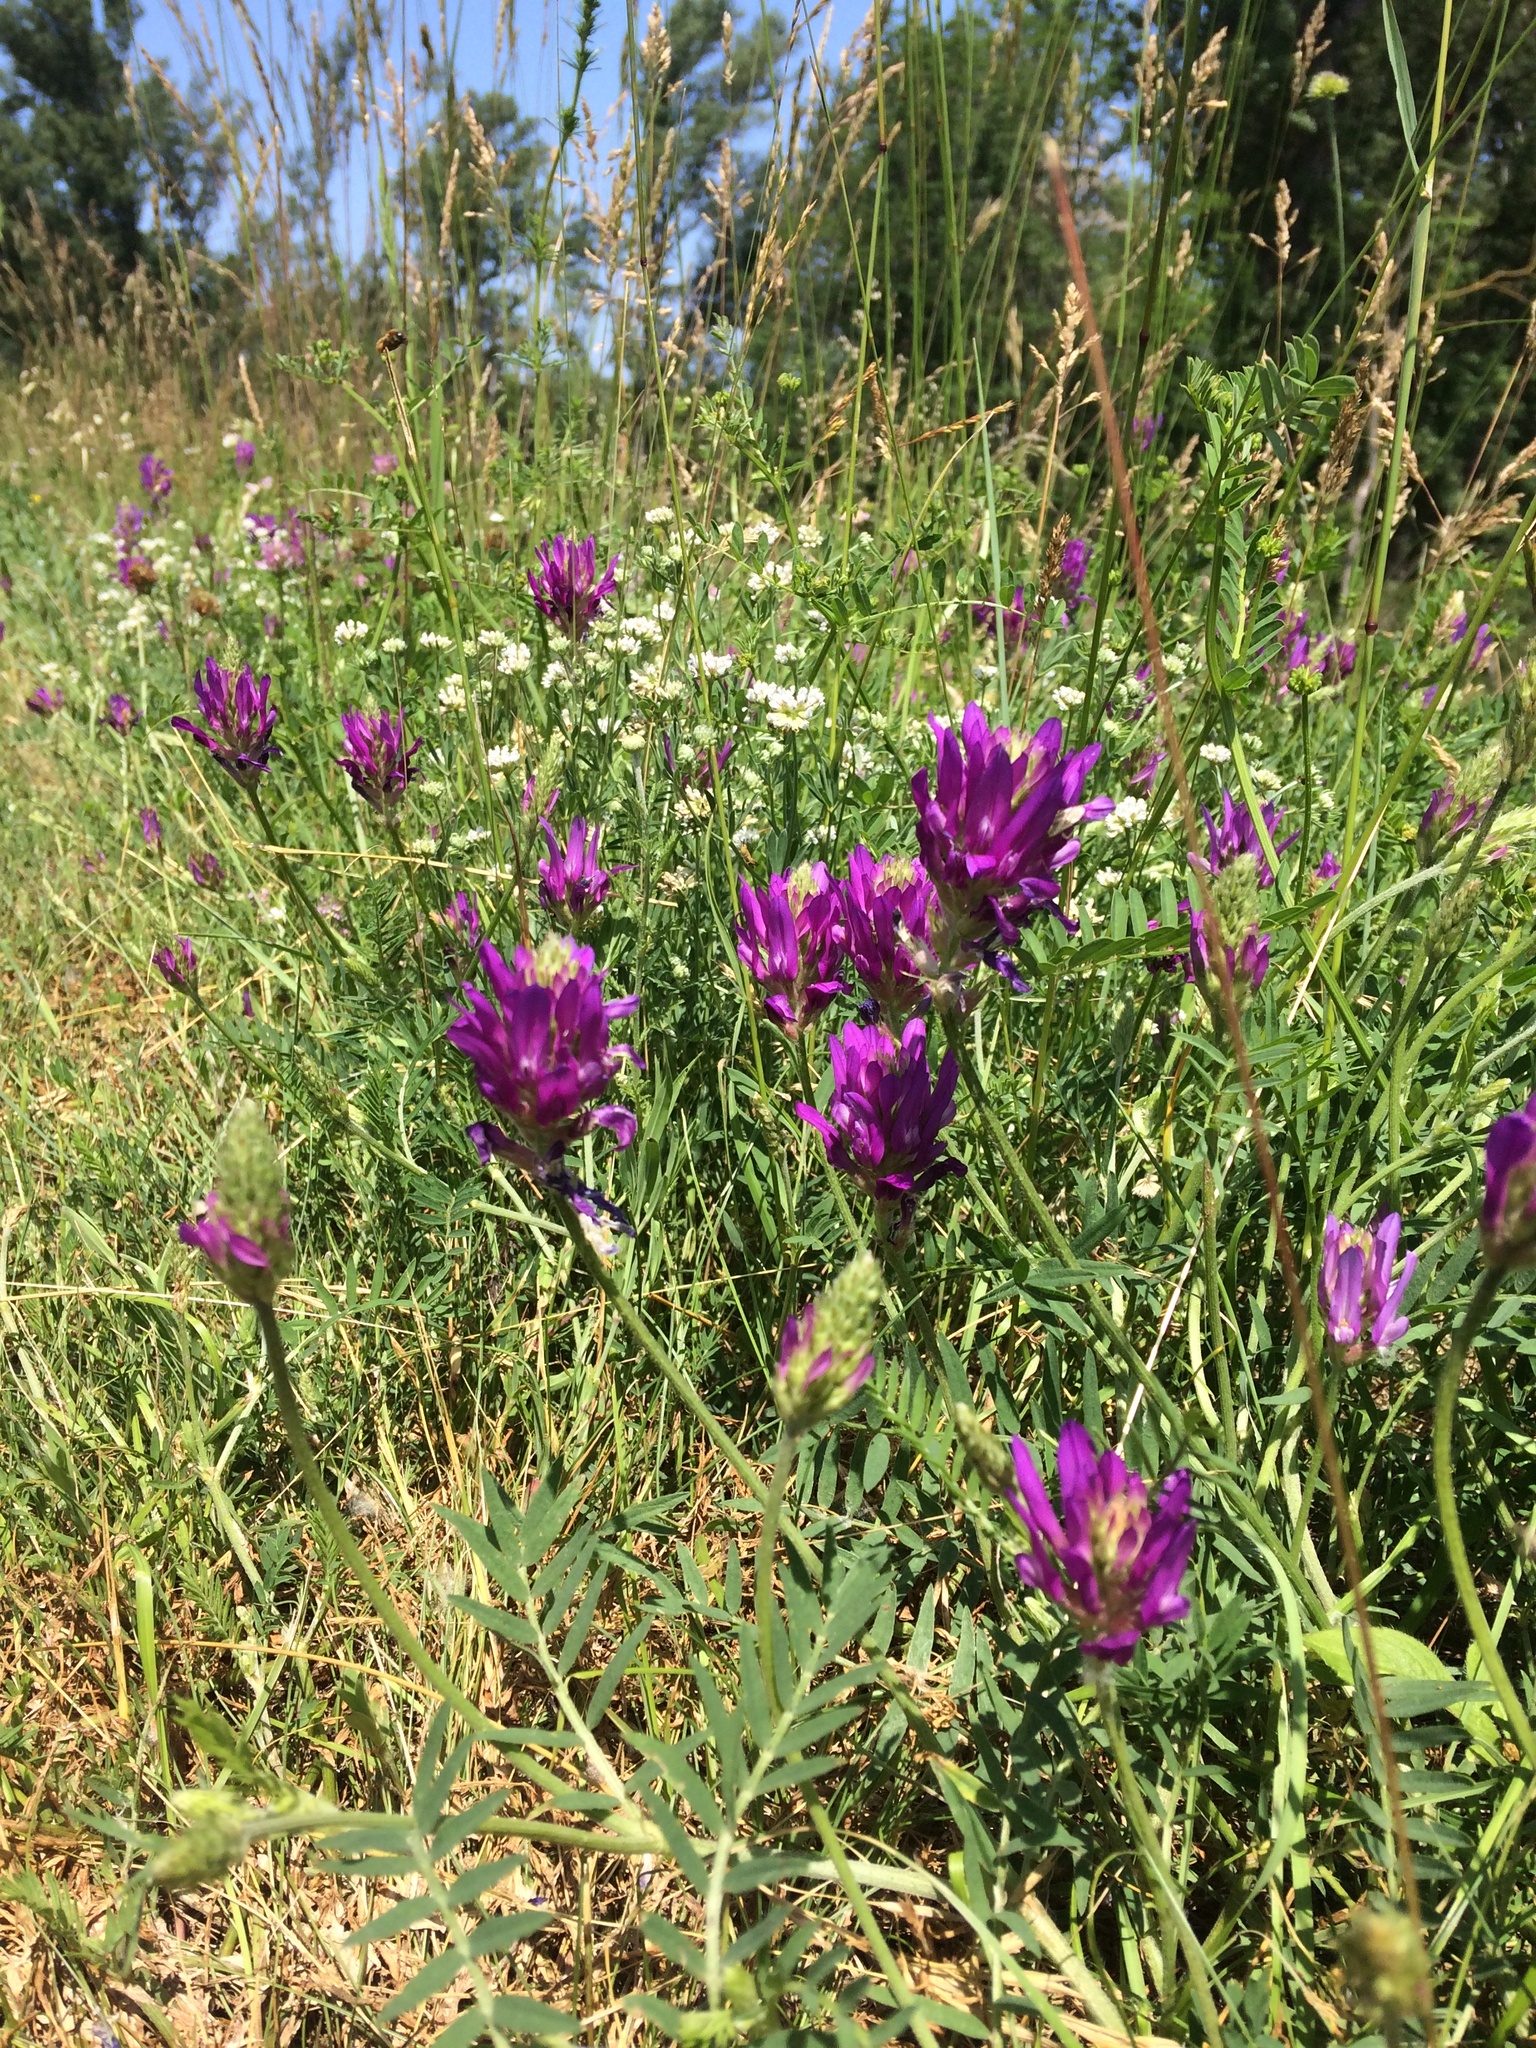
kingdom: Plantae
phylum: Tracheophyta
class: Magnoliopsida
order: Fabales
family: Fabaceae
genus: Astragalus
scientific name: Astragalus onobrychis
